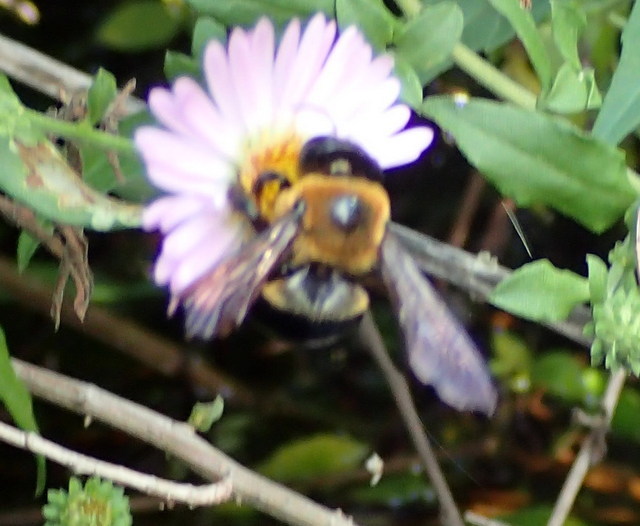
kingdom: Animalia
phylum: Arthropoda
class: Insecta
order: Hymenoptera
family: Apidae
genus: Xylocopa
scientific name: Xylocopa virginica
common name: Carpenter bee
